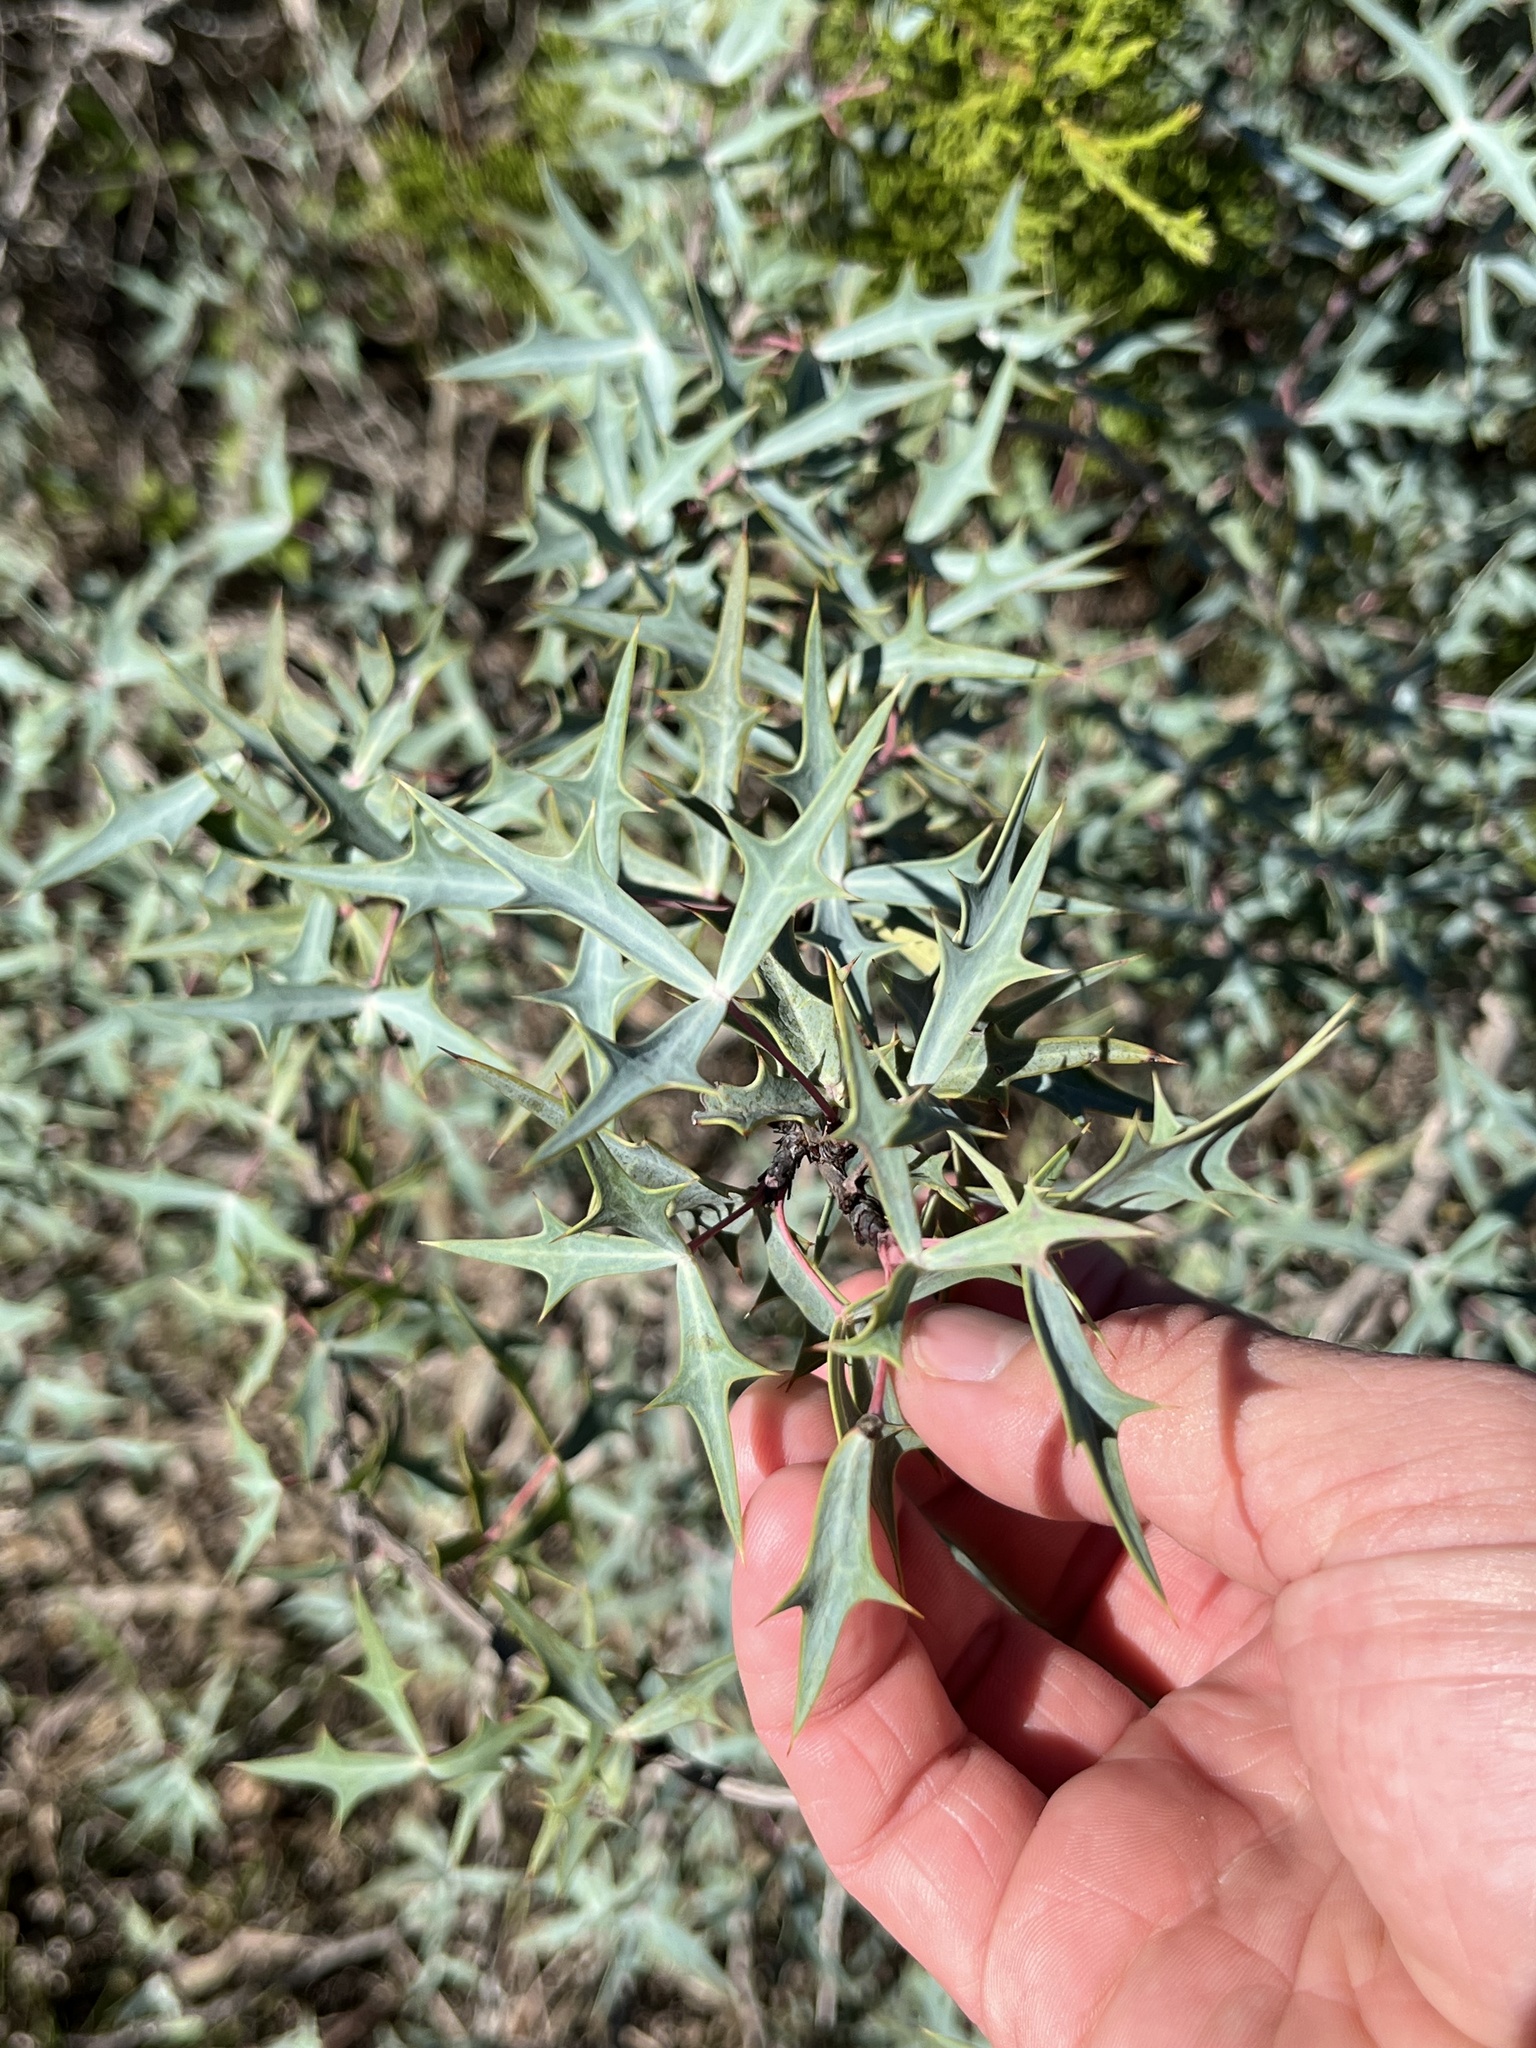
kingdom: Plantae
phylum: Tracheophyta
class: Magnoliopsida
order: Ranunculales
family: Berberidaceae
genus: Alloberberis
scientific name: Alloberberis trifoliolata
